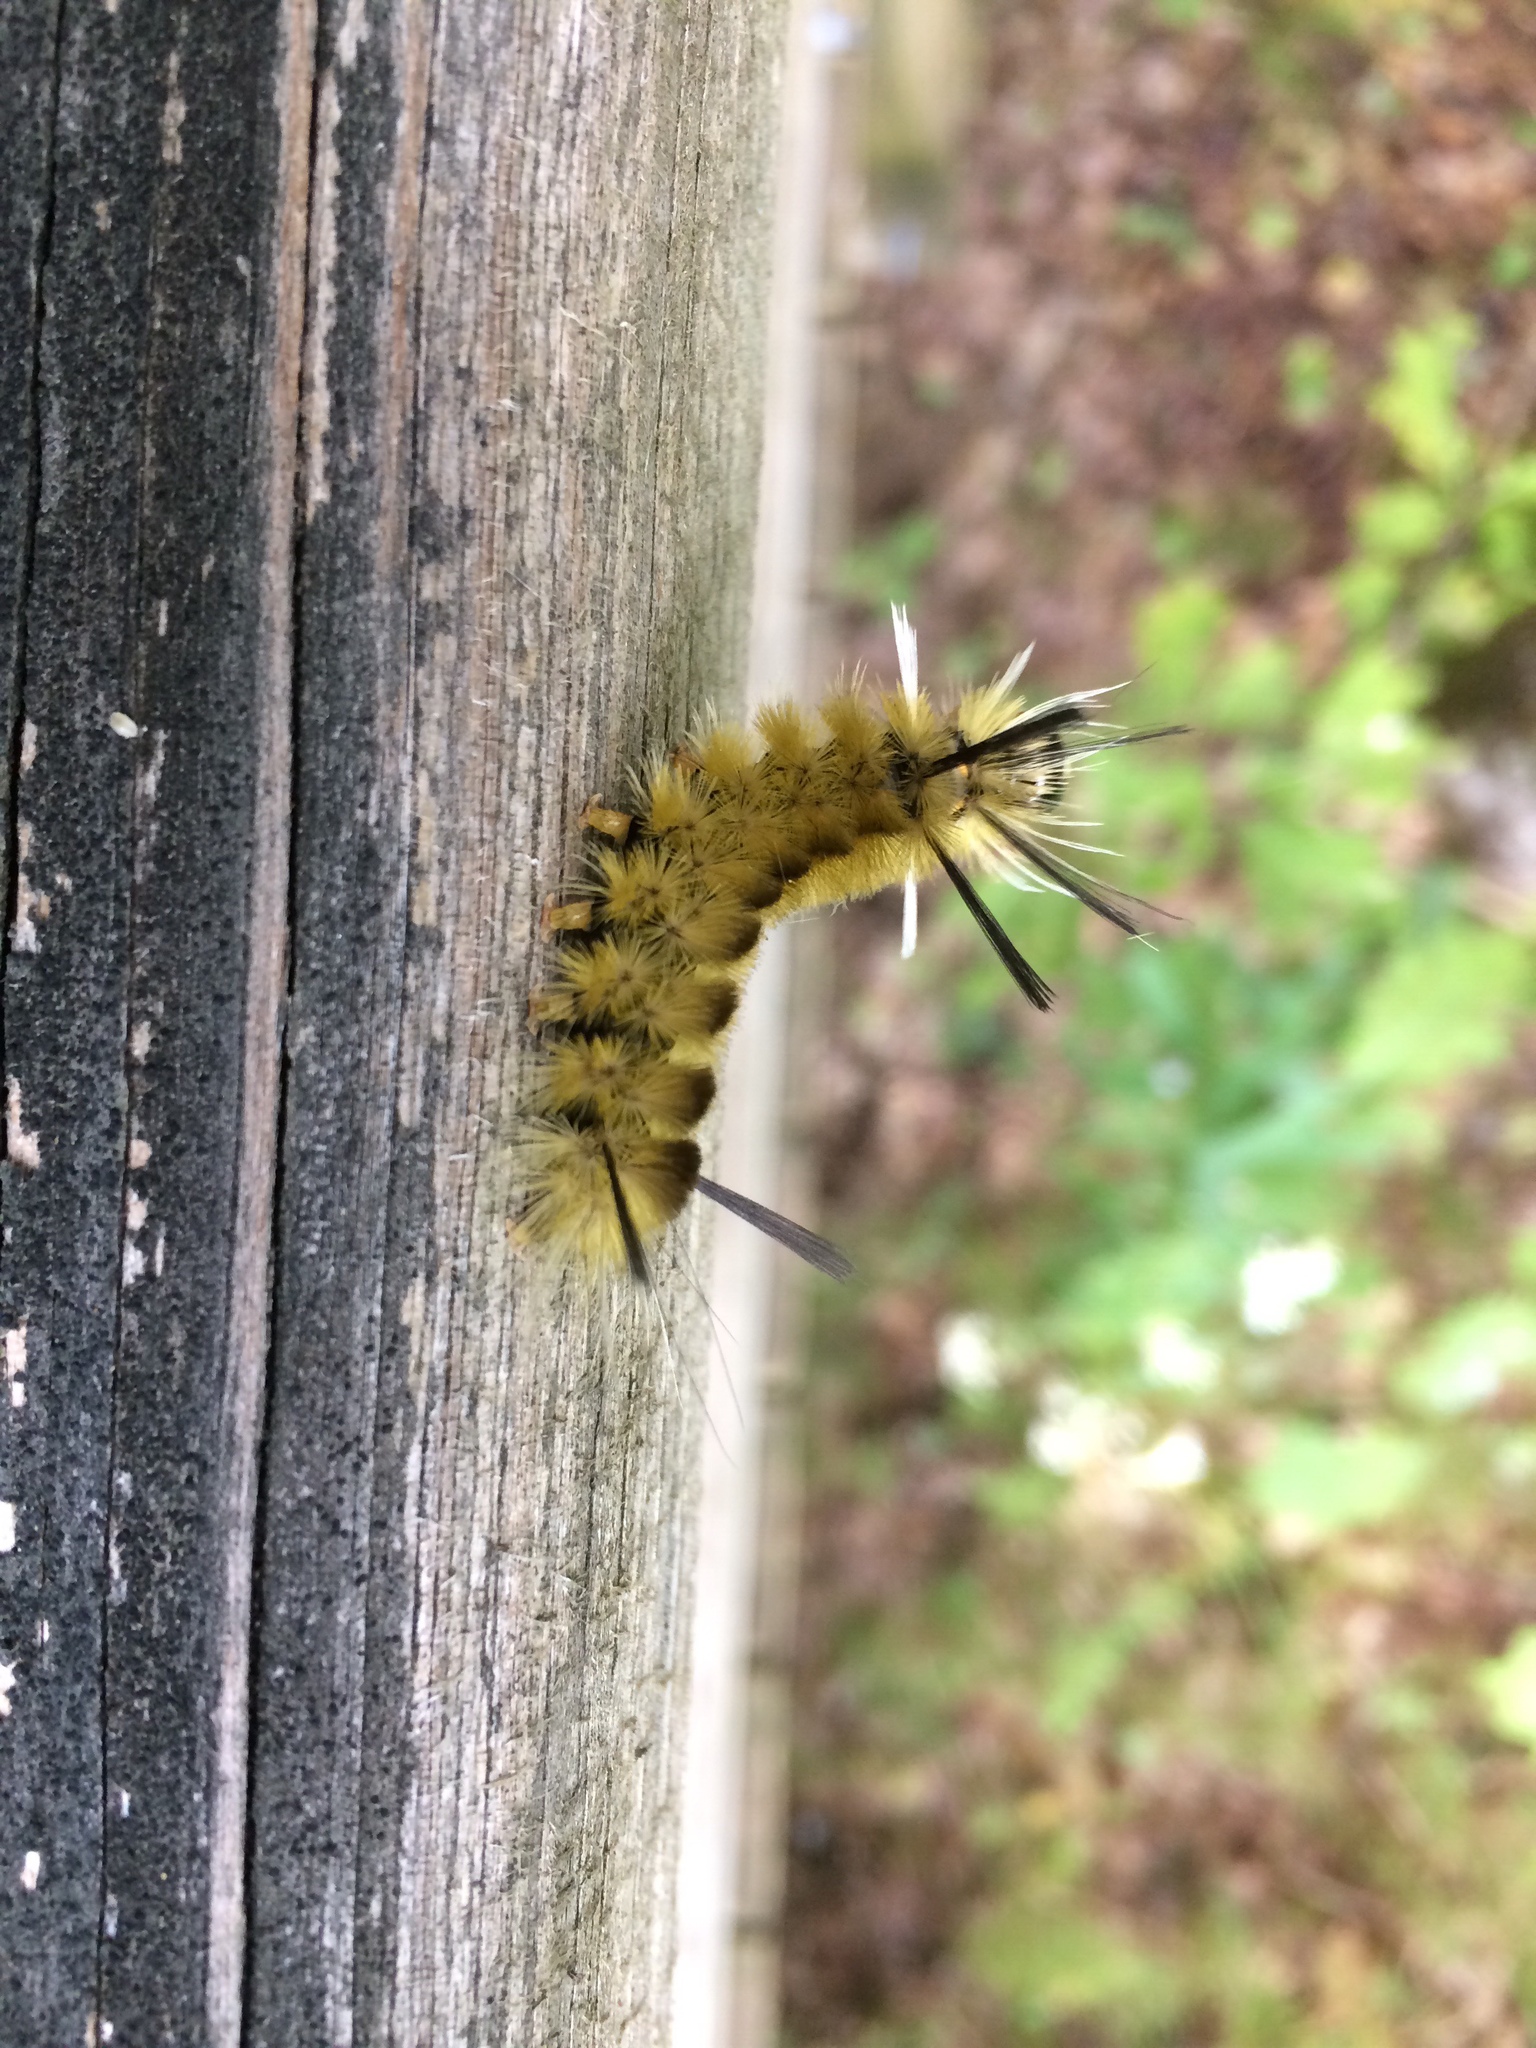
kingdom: Animalia
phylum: Arthropoda
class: Insecta
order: Lepidoptera
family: Erebidae
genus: Halysidota
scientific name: Halysidota tessellaris
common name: Banded tussock moth
